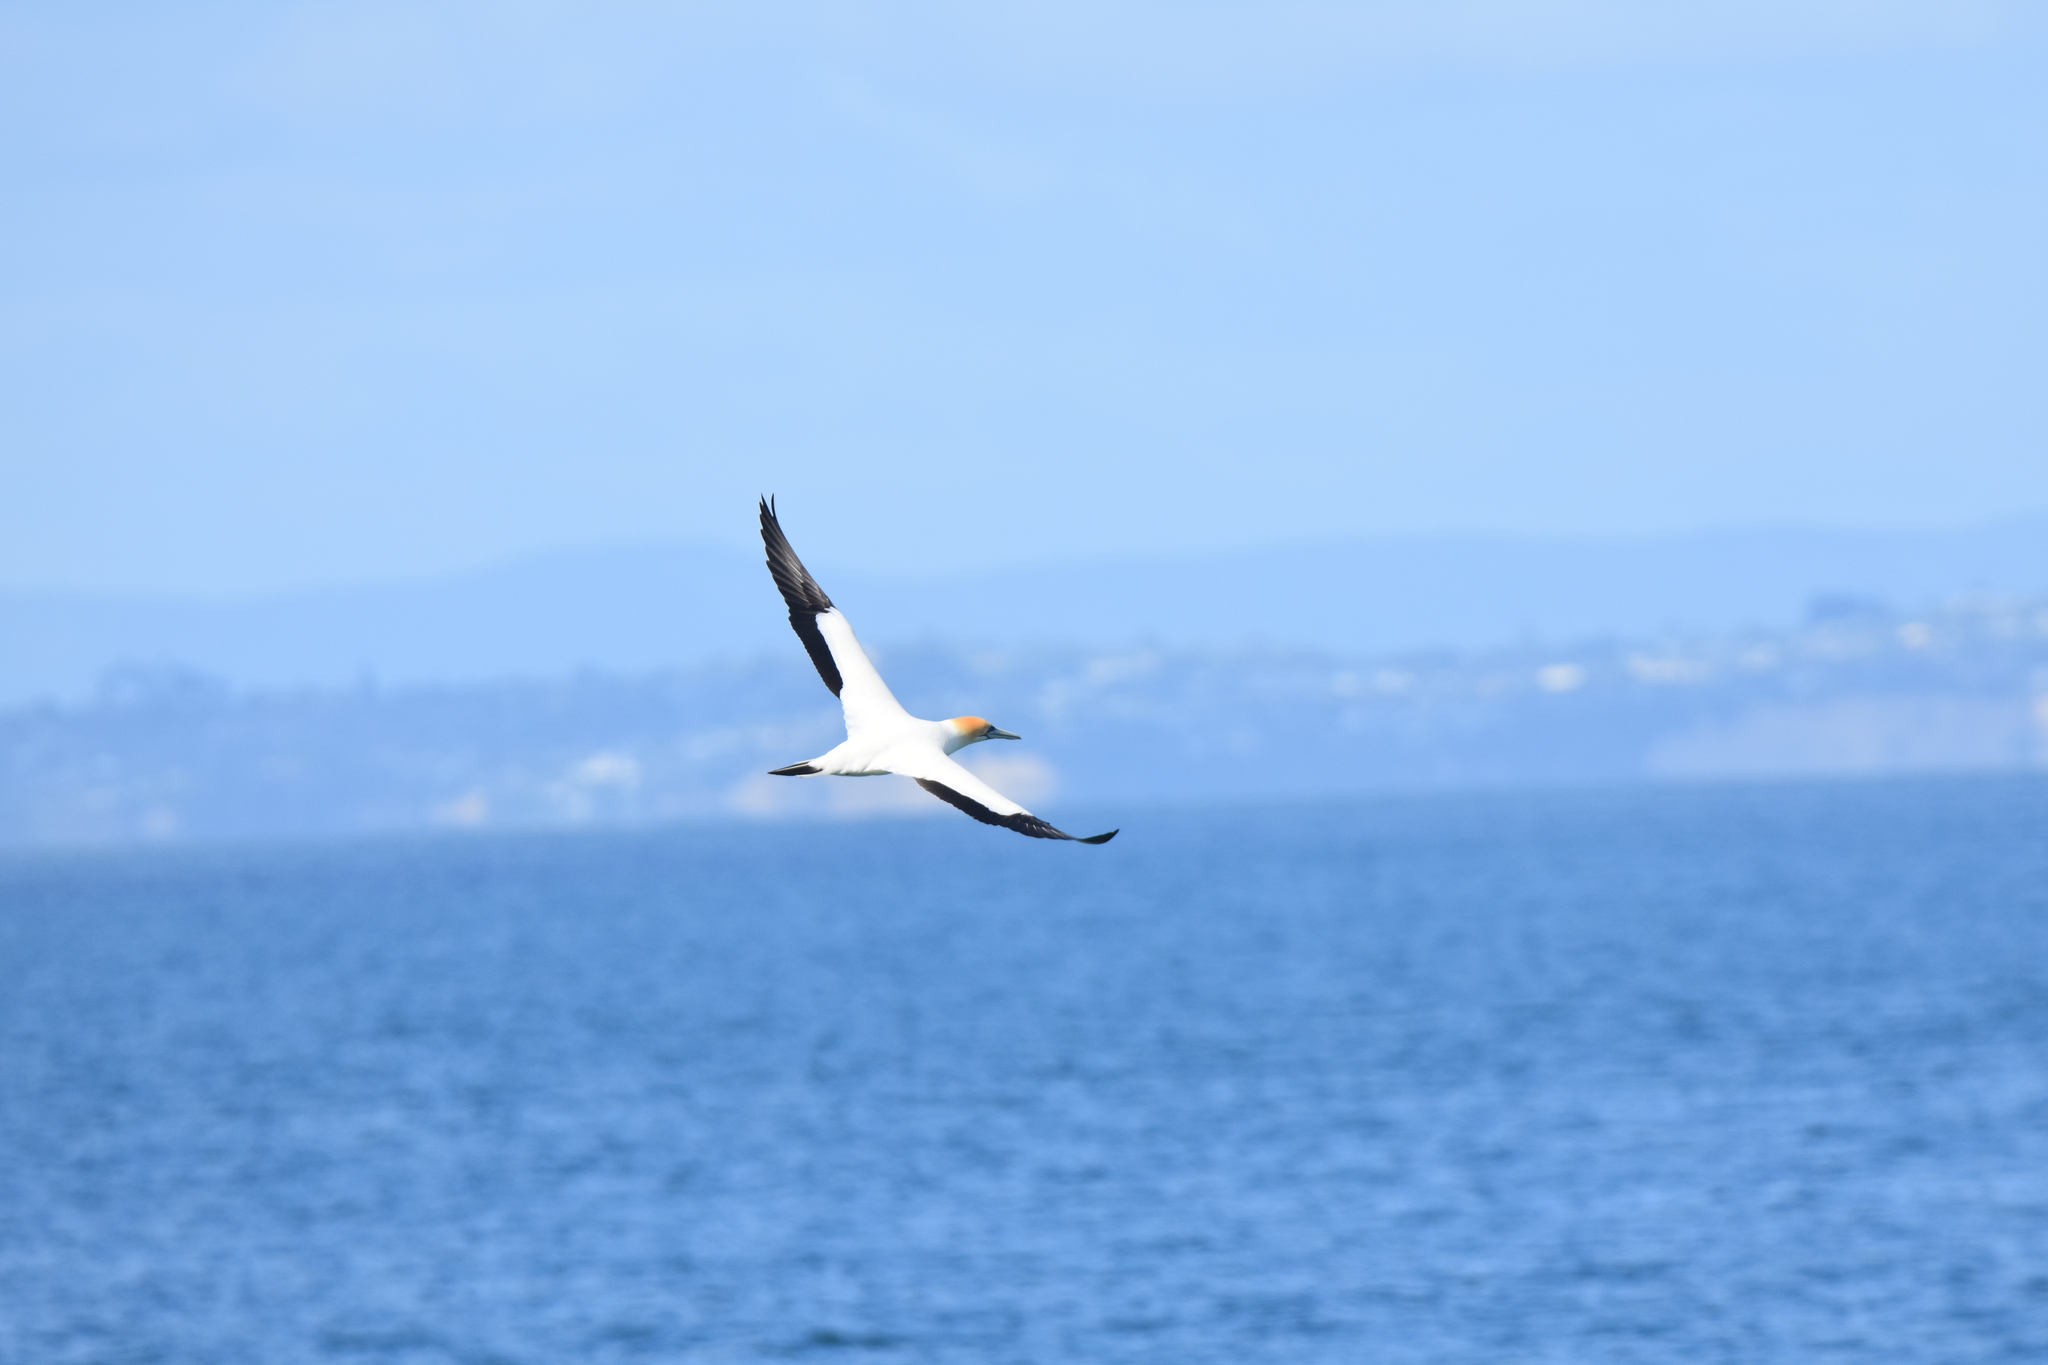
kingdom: Animalia
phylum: Chordata
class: Aves
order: Suliformes
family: Sulidae
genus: Morus
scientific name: Morus serrator
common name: Australasian gannet
